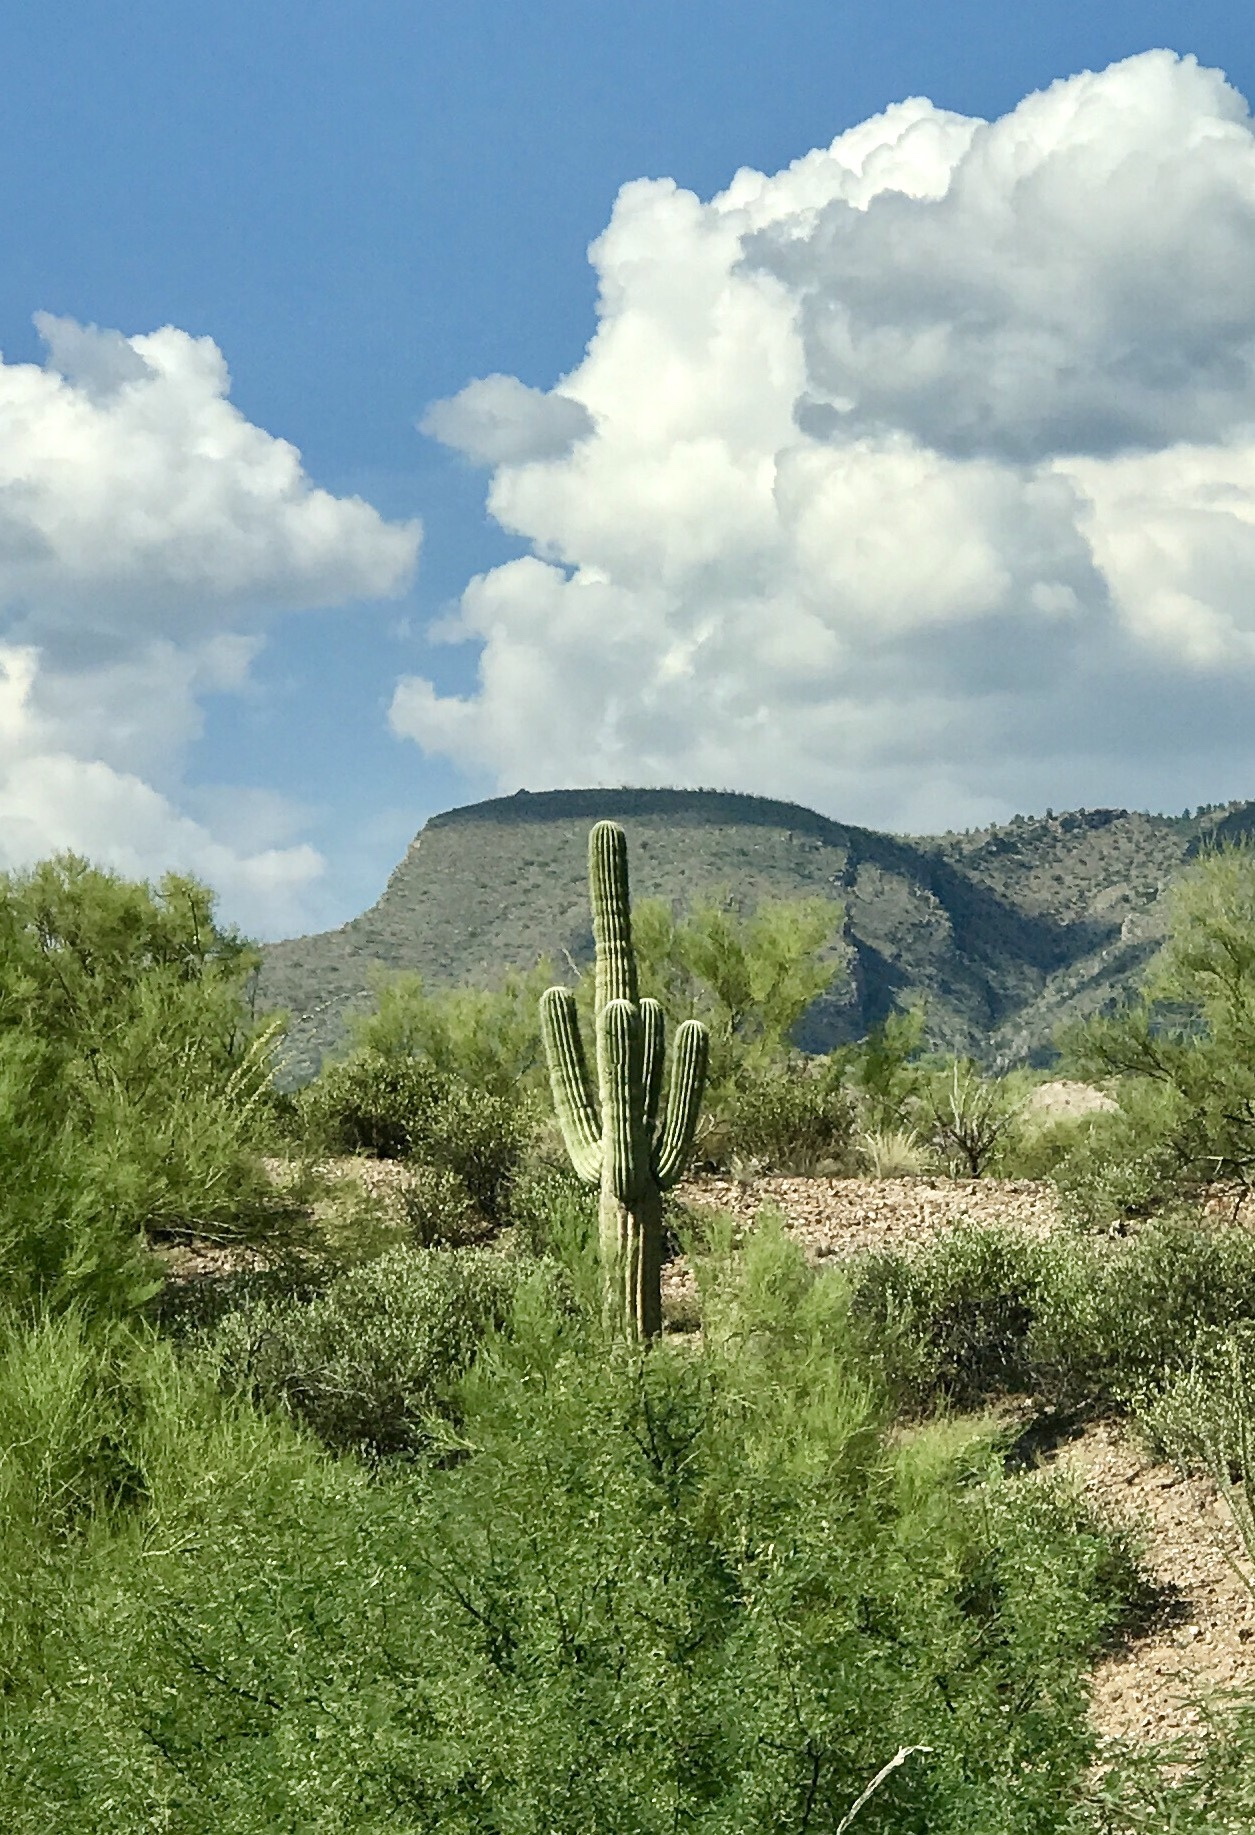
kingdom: Plantae
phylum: Tracheophyta
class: Magnoliopsida
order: Caryophyllales
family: Cactaceae
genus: Carnegiea
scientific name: Carnegiea gigantea
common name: Saguaro
